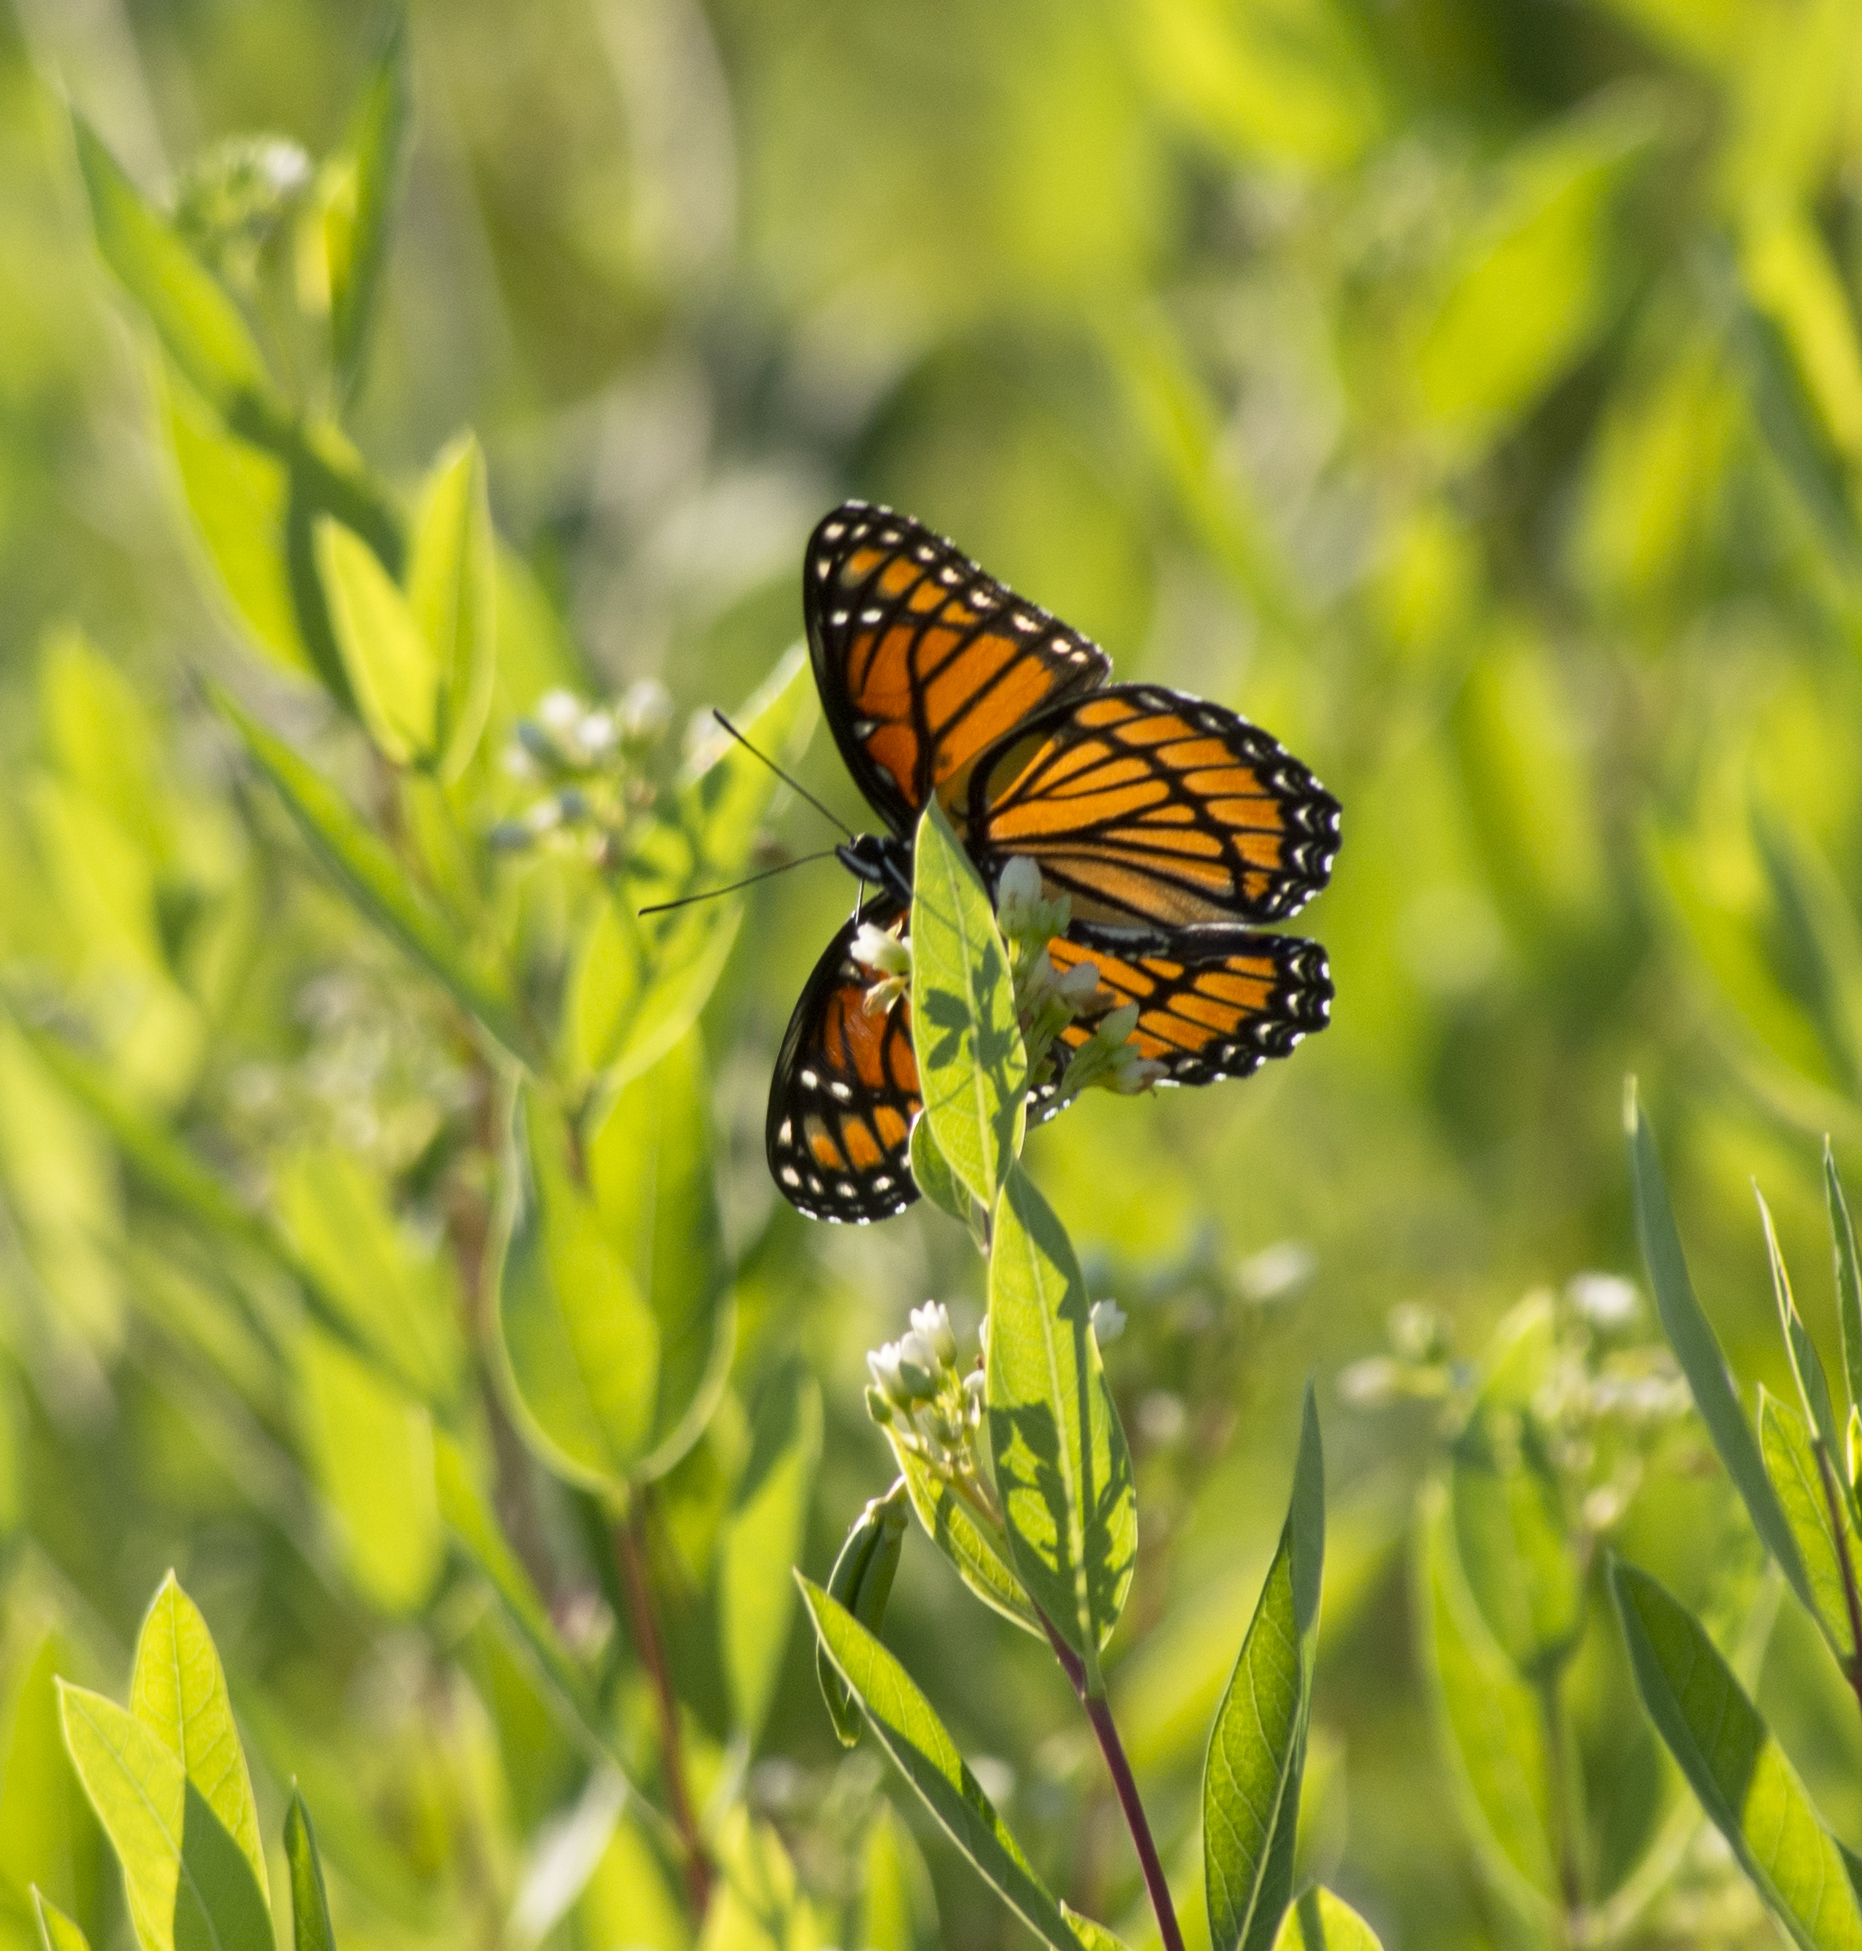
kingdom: Animalia
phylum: Arthropoda
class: Insecta
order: Lepidoptera
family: Nymphalidae
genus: Limenitis
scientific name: Limenitis archippus
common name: Viceroy
